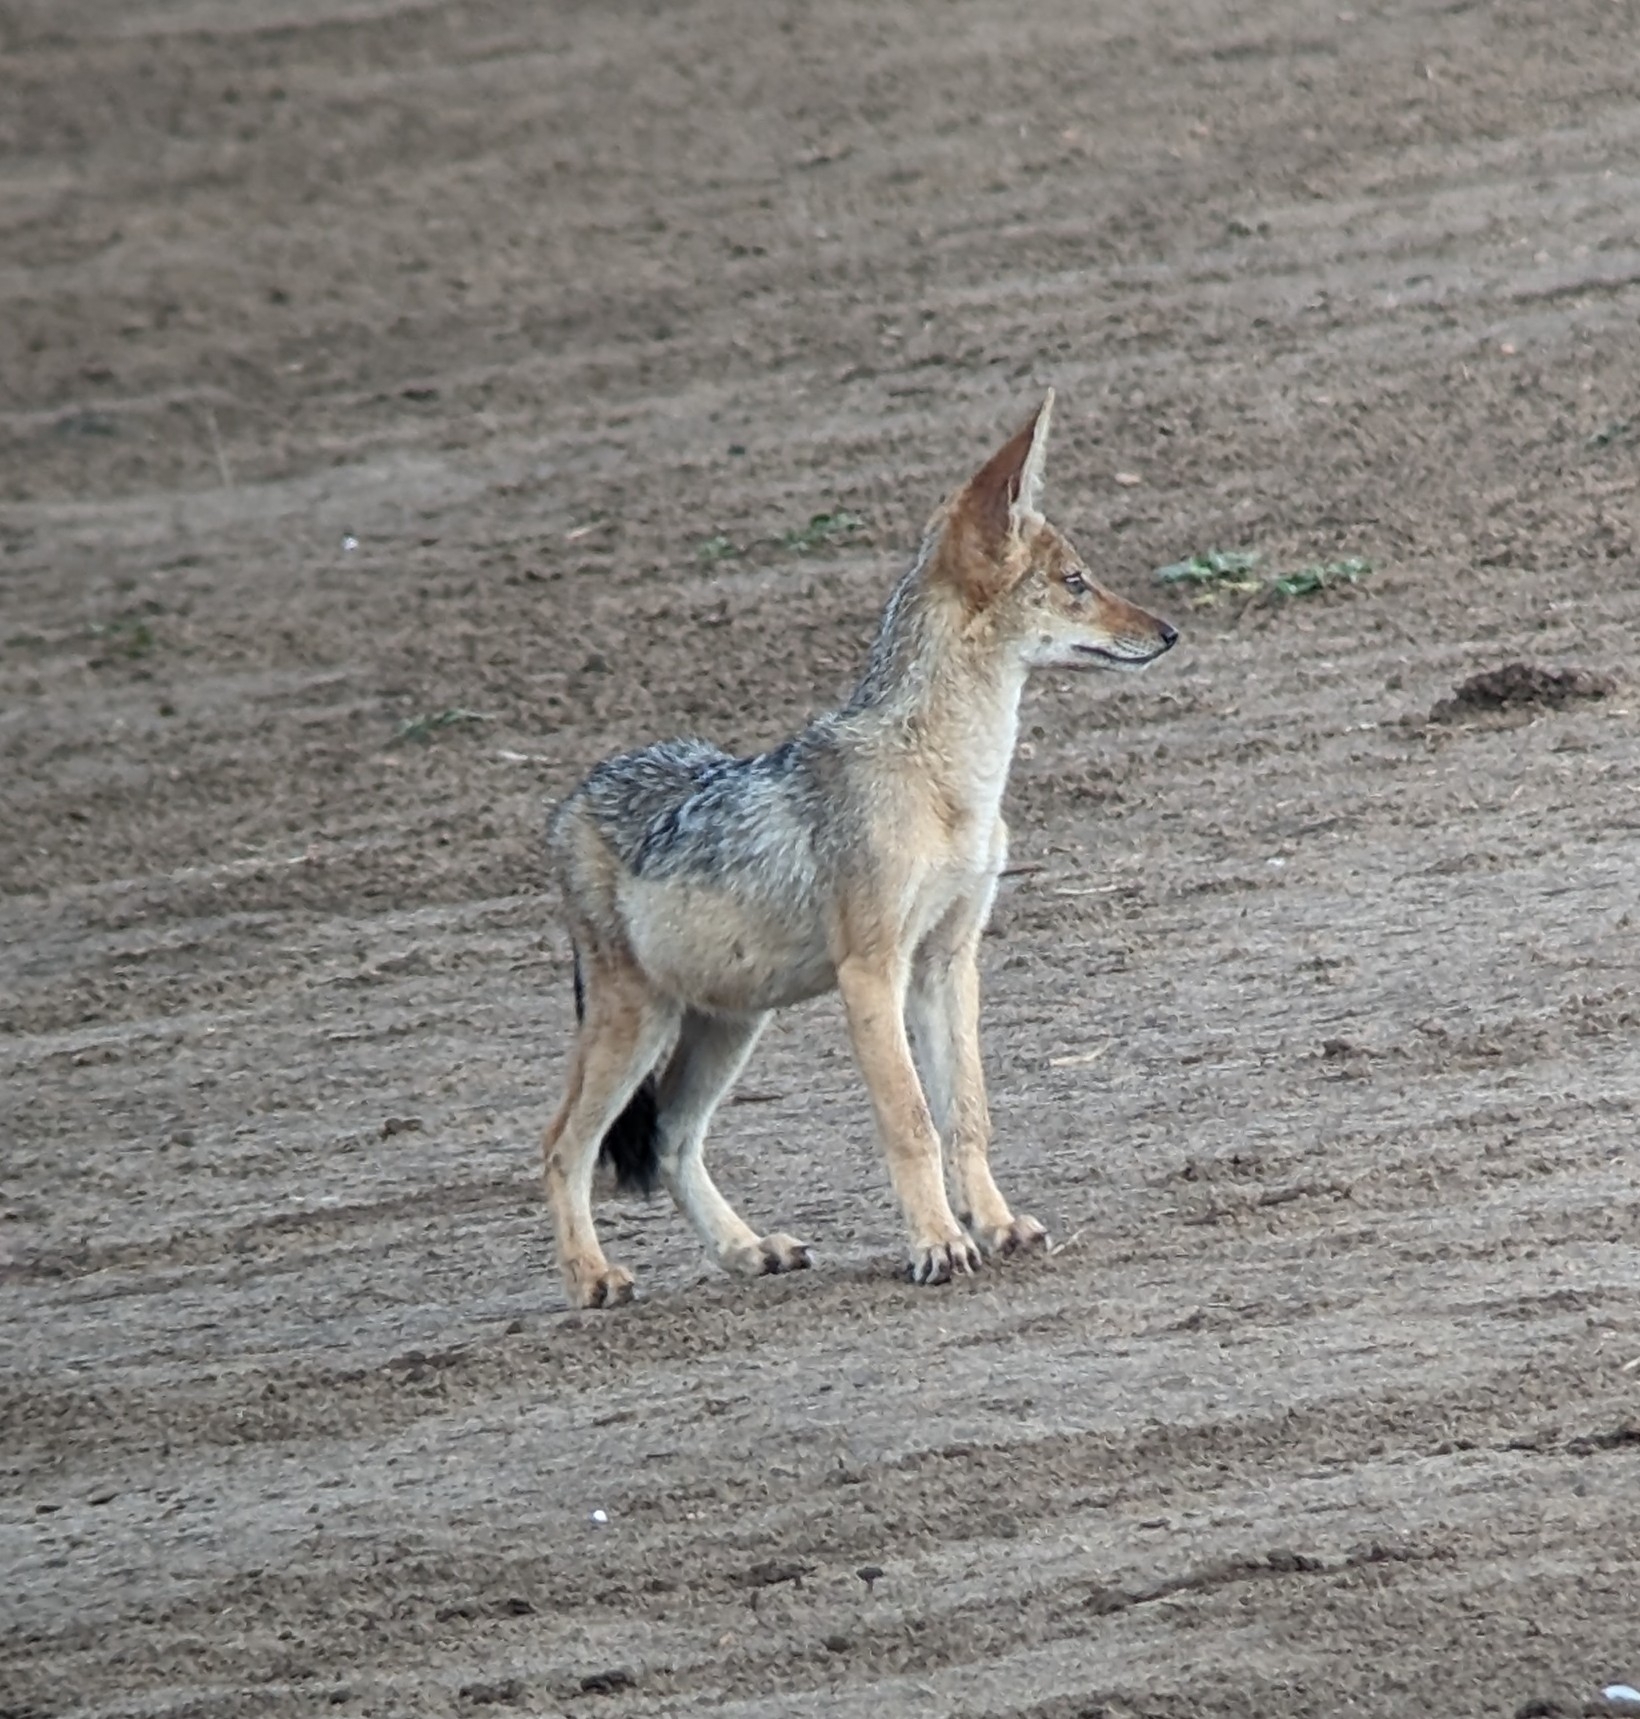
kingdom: Animalia
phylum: Chordata
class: Mammalia
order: Carnivora
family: Canidae
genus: Lupulella
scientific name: Lupulella
